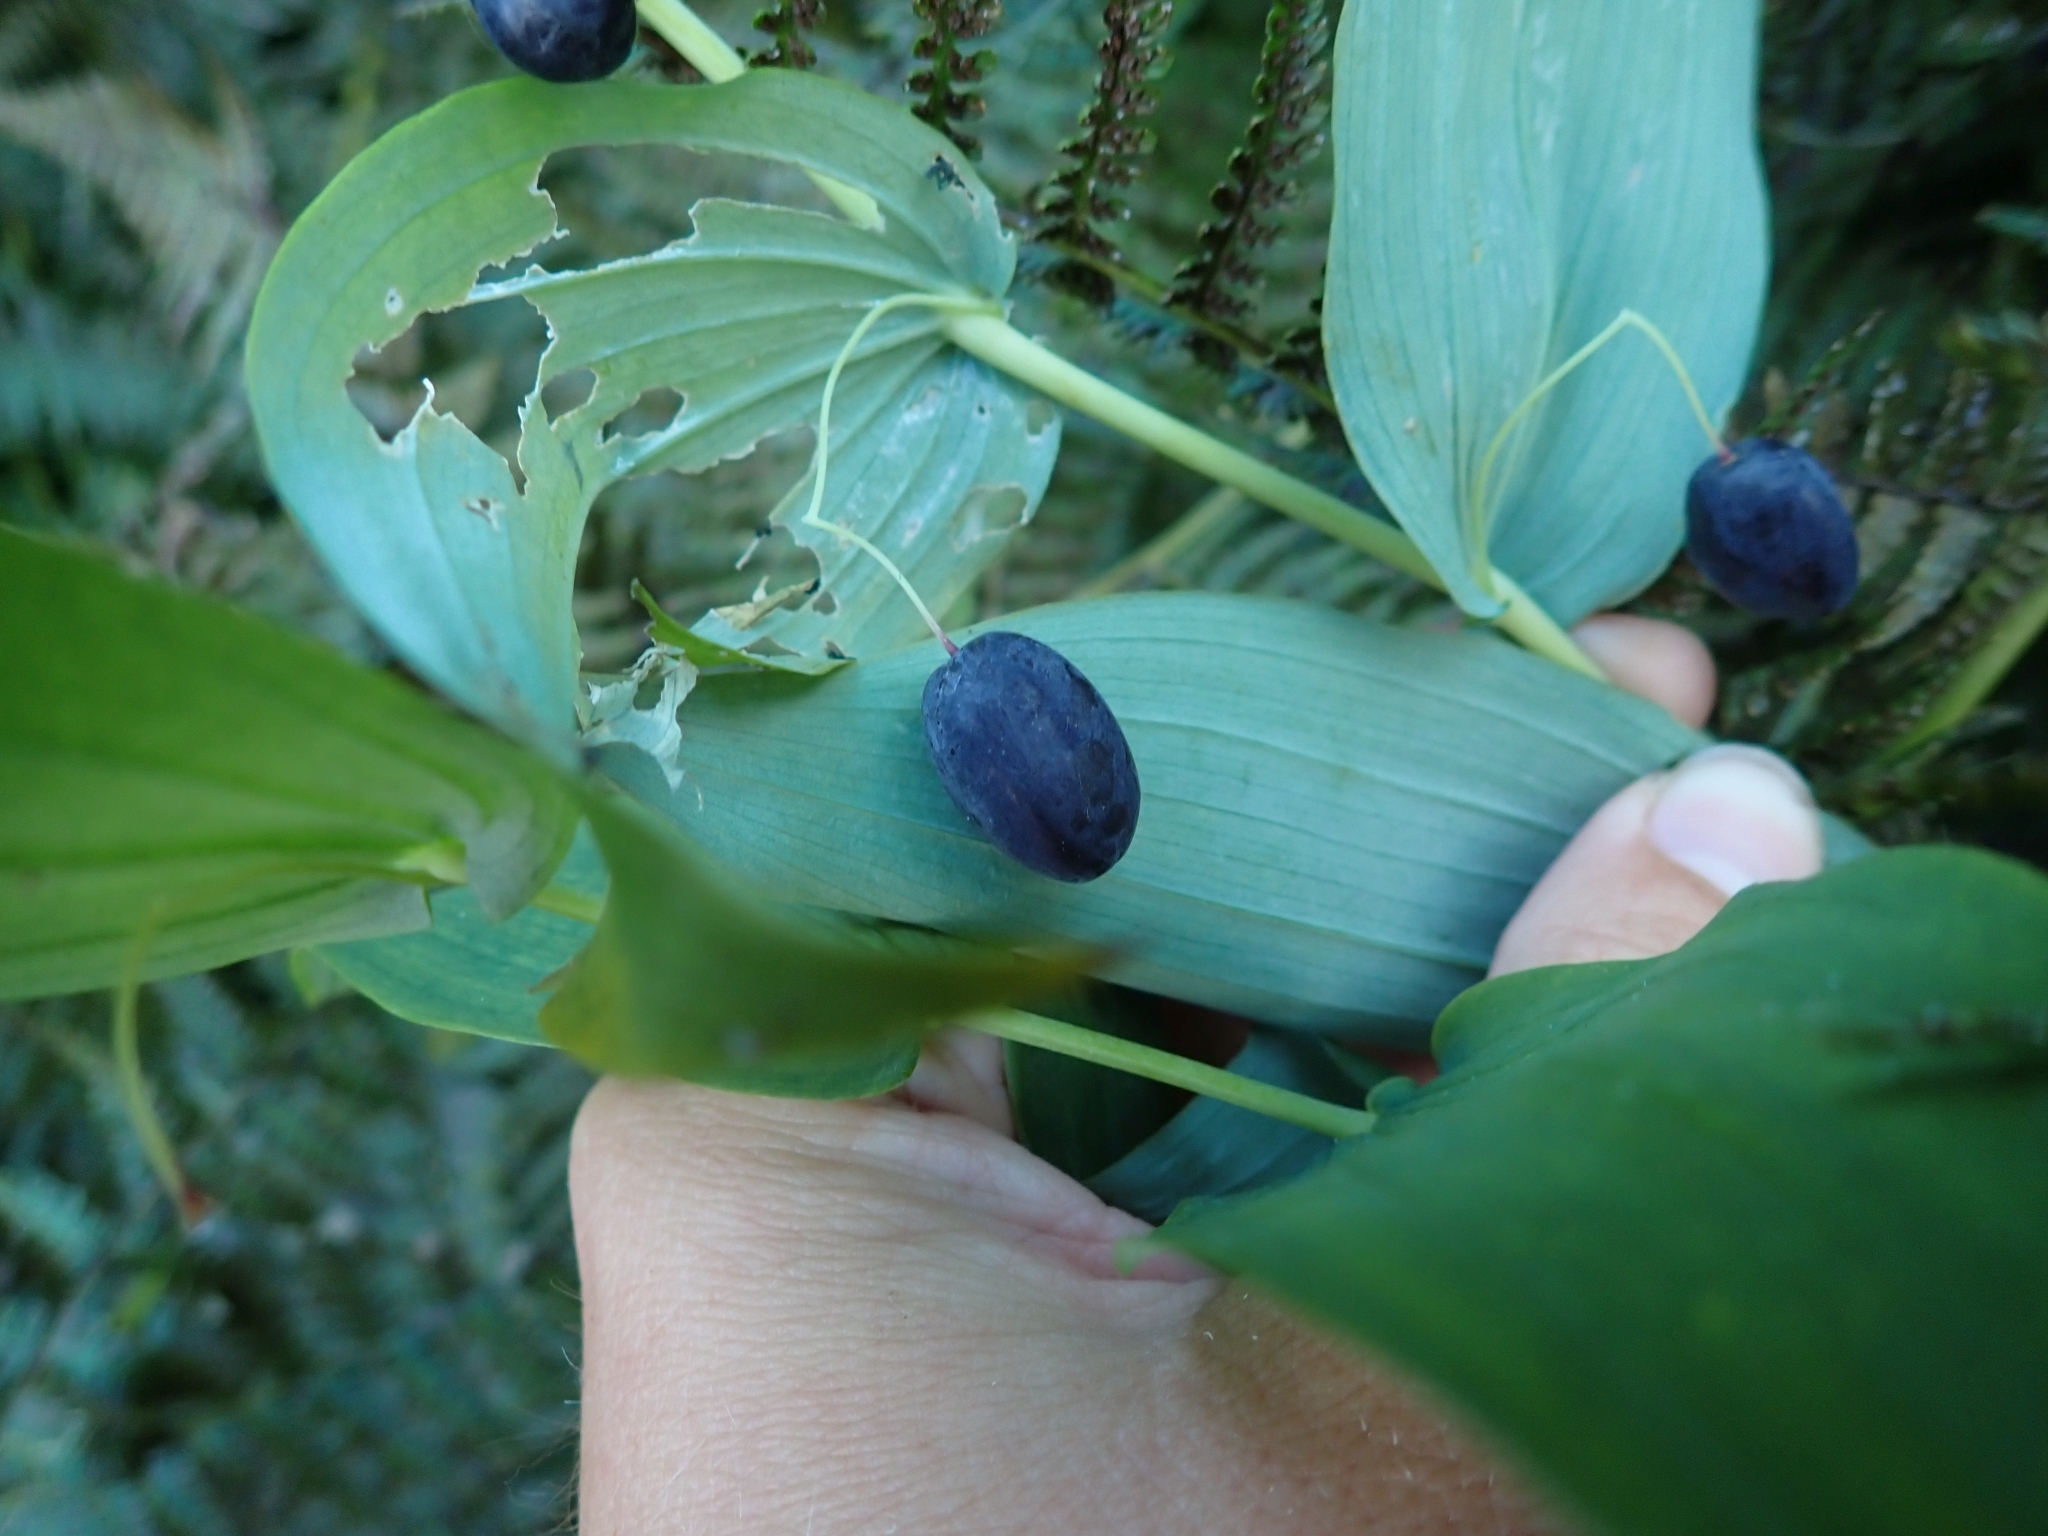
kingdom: Plantae
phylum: Tracheophyta
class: Liliopsida
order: Liliales
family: Liliaceae
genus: Streptopus
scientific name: Streptopus amplexifolius
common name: Clasp twisted stalk
